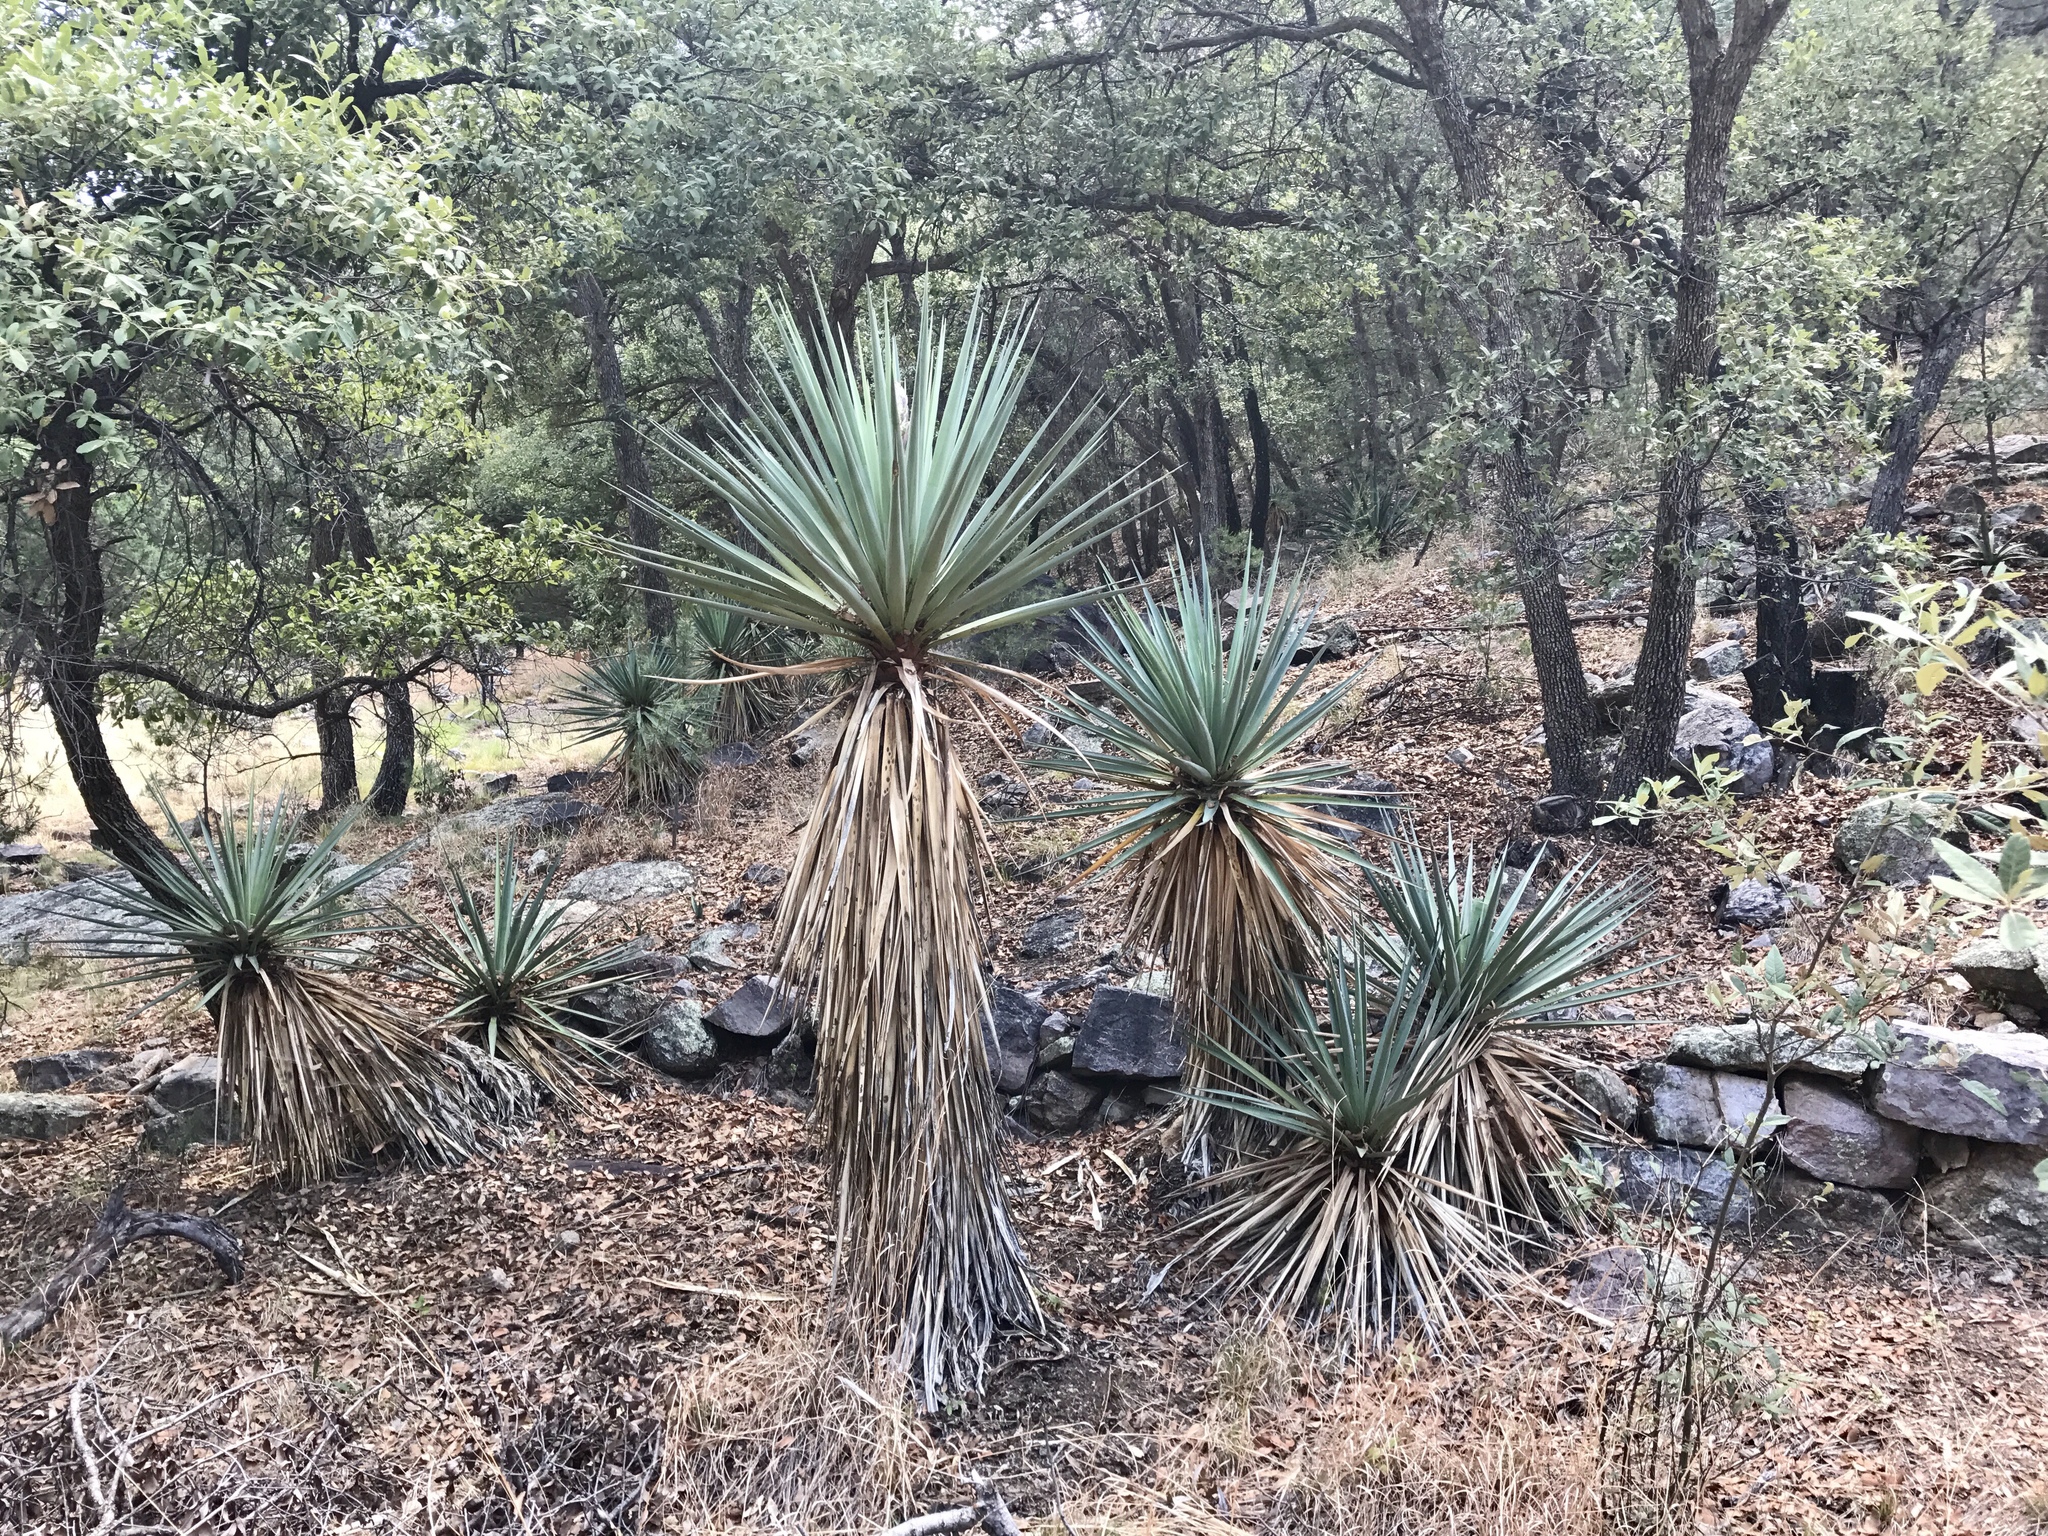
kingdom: Plantae
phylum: Tracheophyta
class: Liliopsida
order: Asparagales
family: Asparagaceae
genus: Yucca
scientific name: Yucca schottii
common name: Hoary yucca
